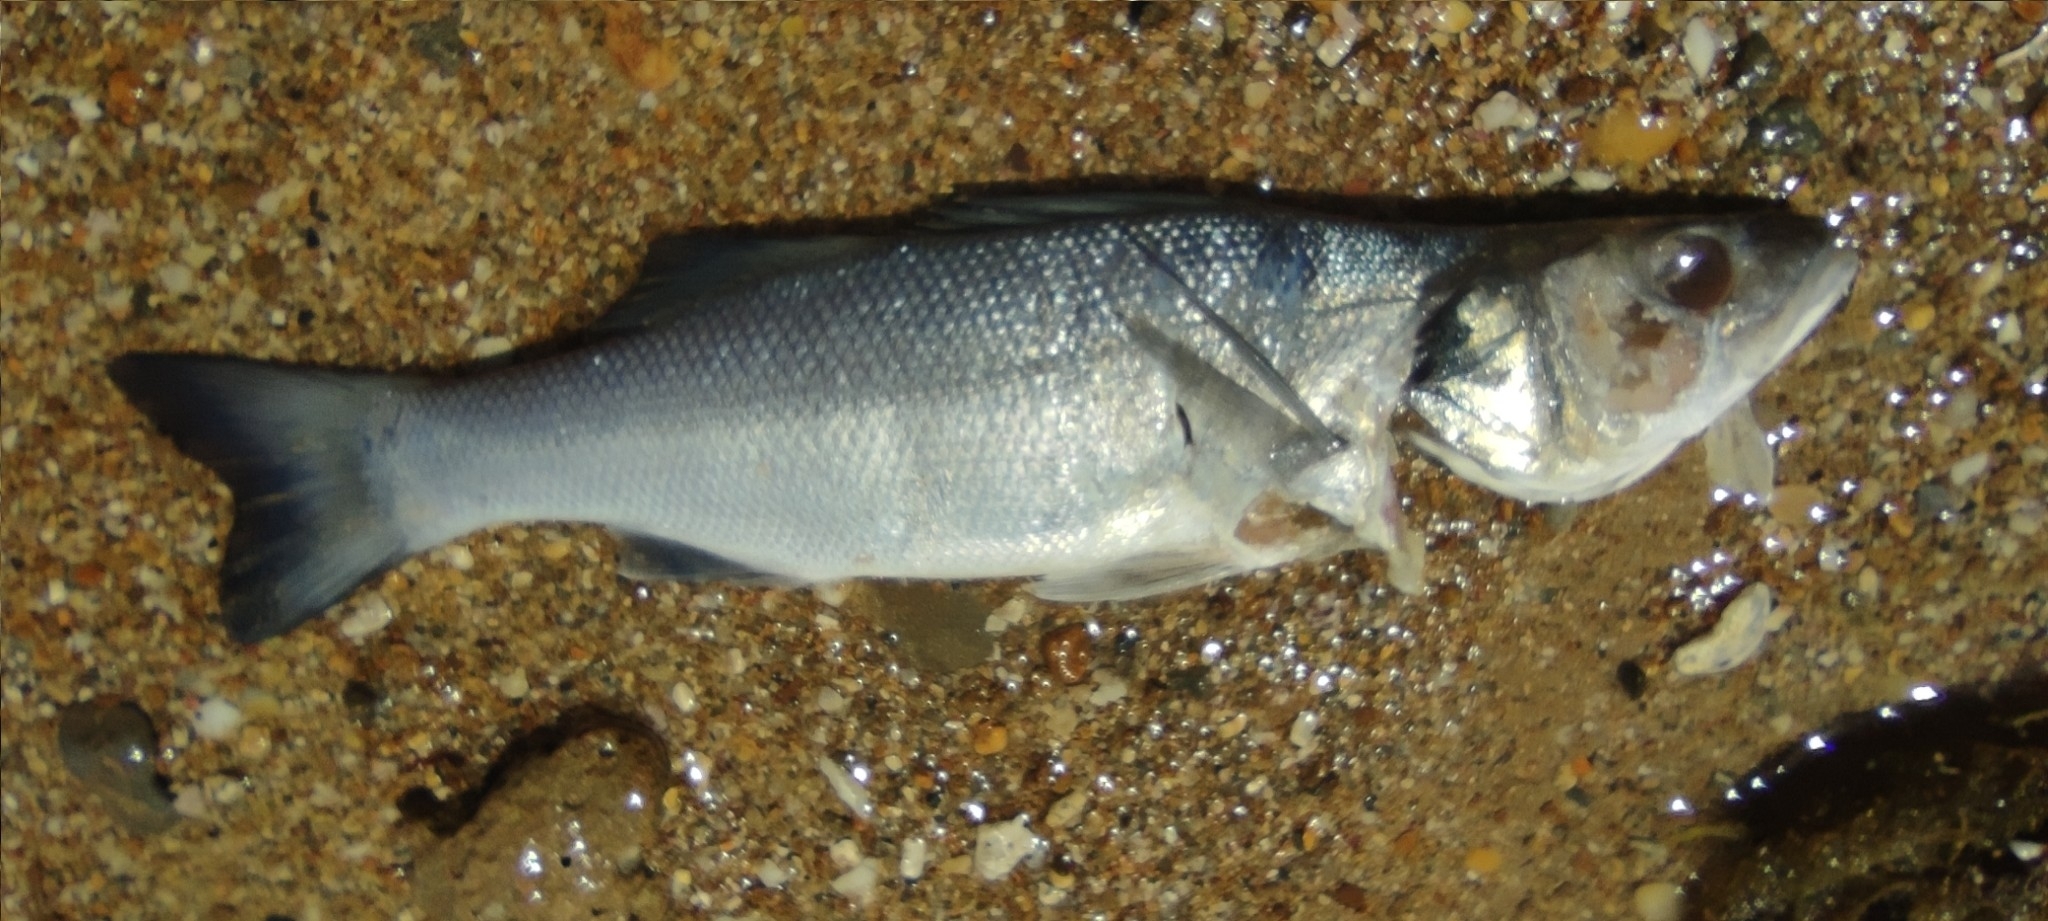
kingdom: Animalia
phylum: Chordata
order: Perciformes
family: Moronidae
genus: Dicentrarchus
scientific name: Dicentrarchus labrax
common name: European seabass
